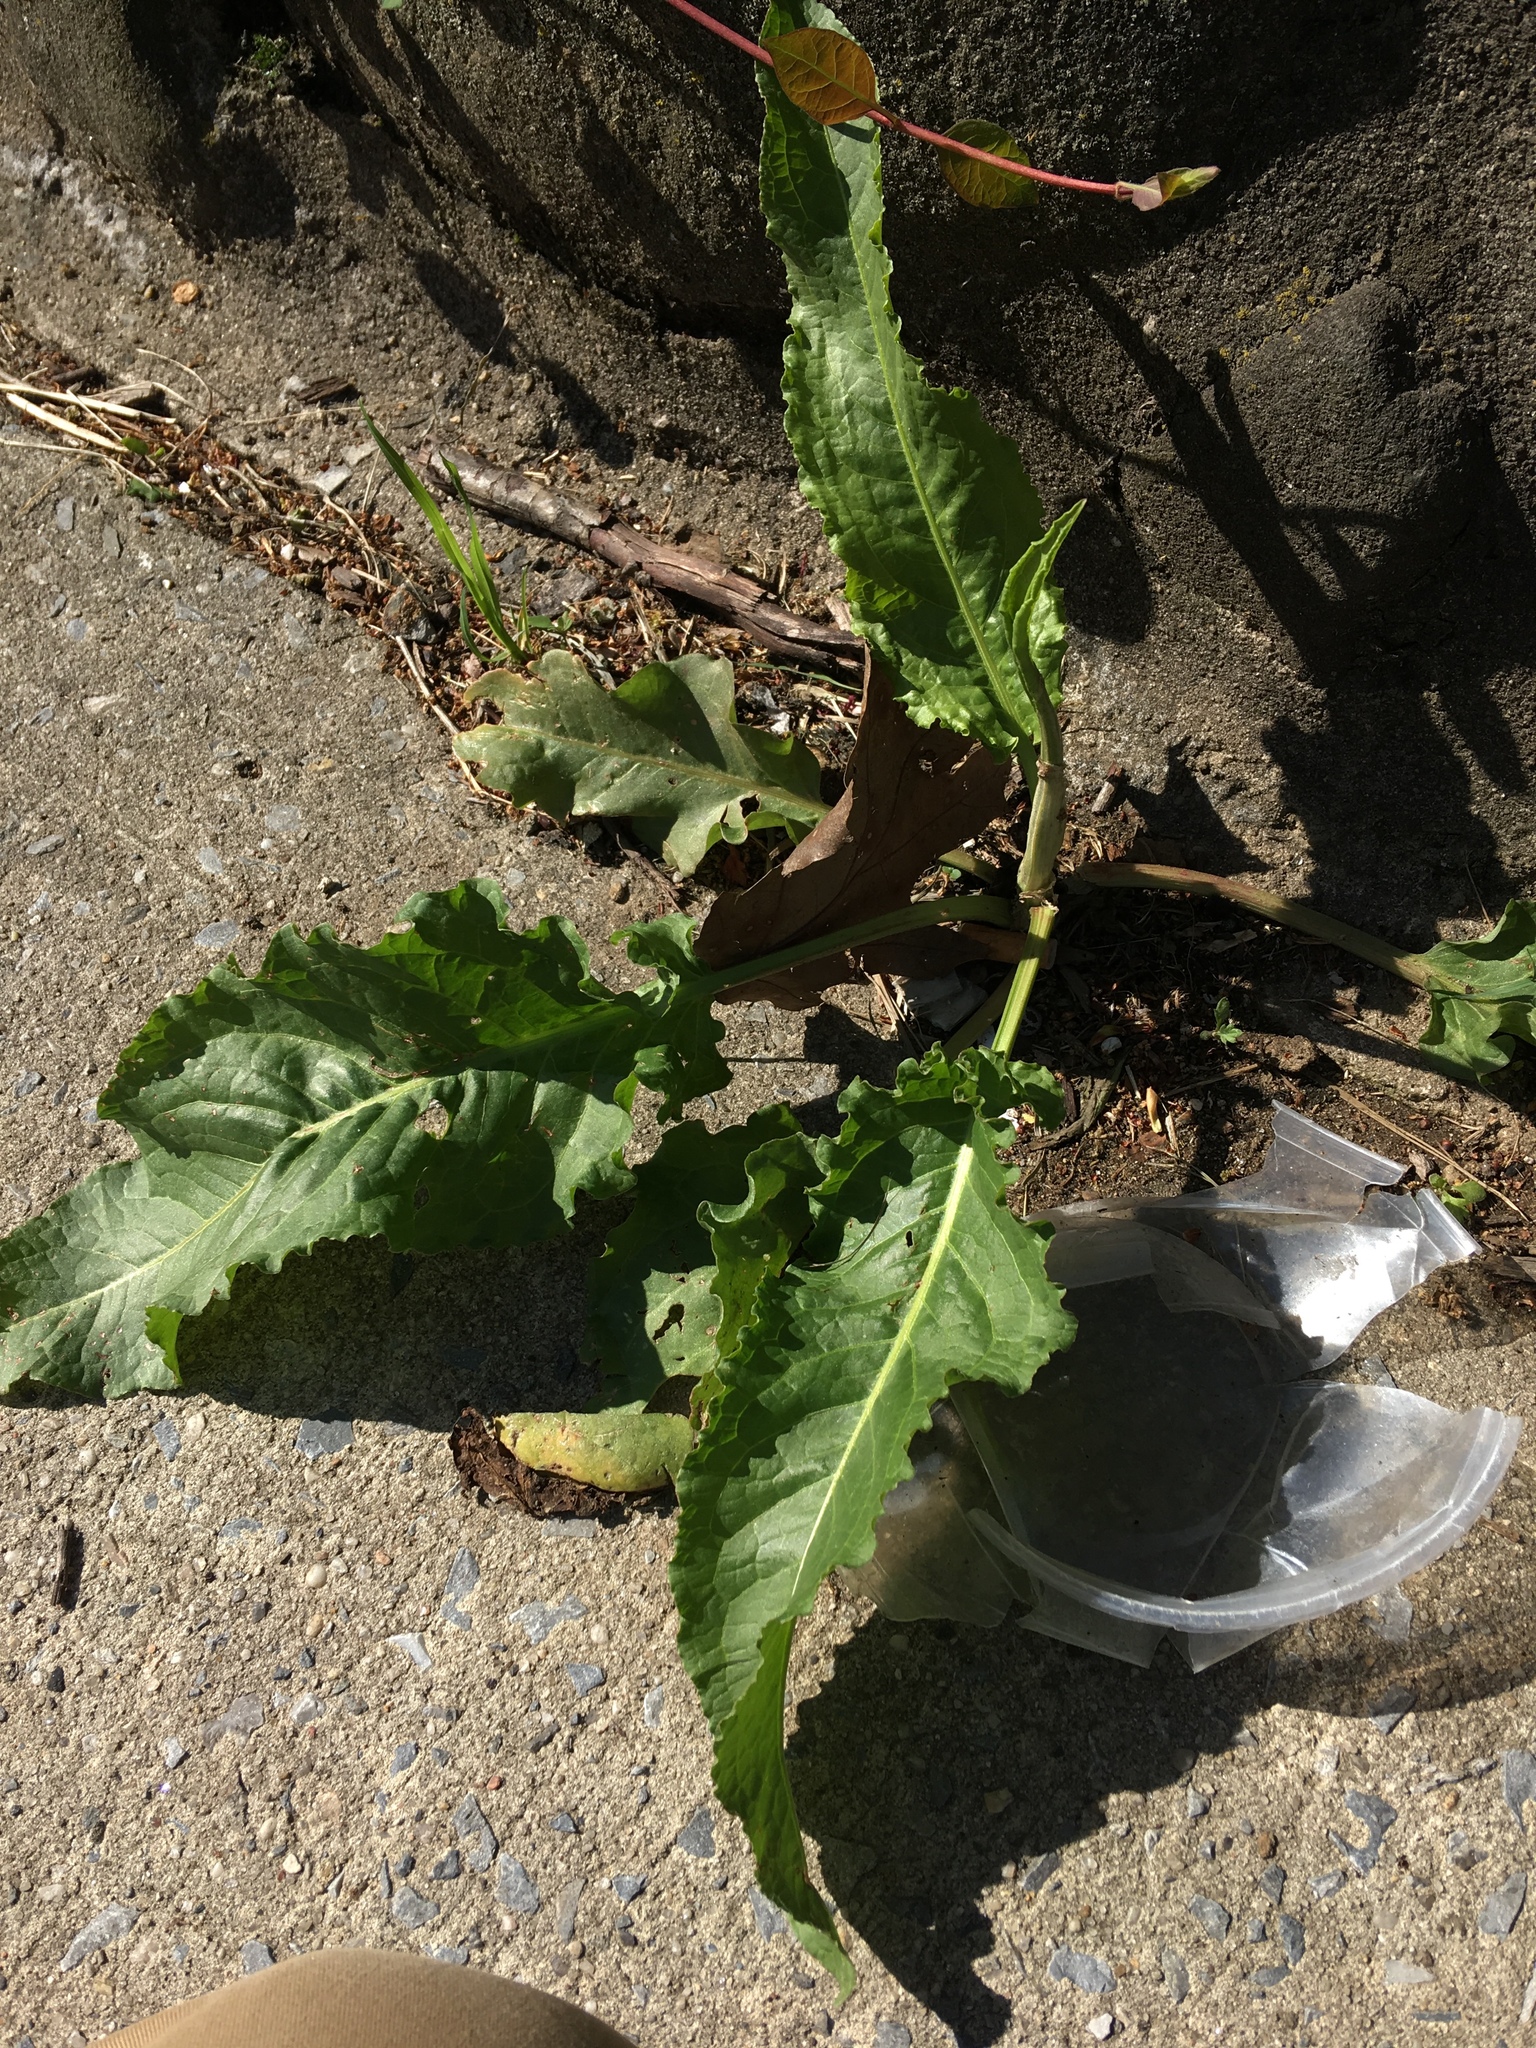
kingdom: Plantae
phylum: Tracheophyta
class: Magnoliopsida
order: Caryophyllales
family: Polygonaceae
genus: Rumex
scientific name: Rumex crispus
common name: Curled dock
